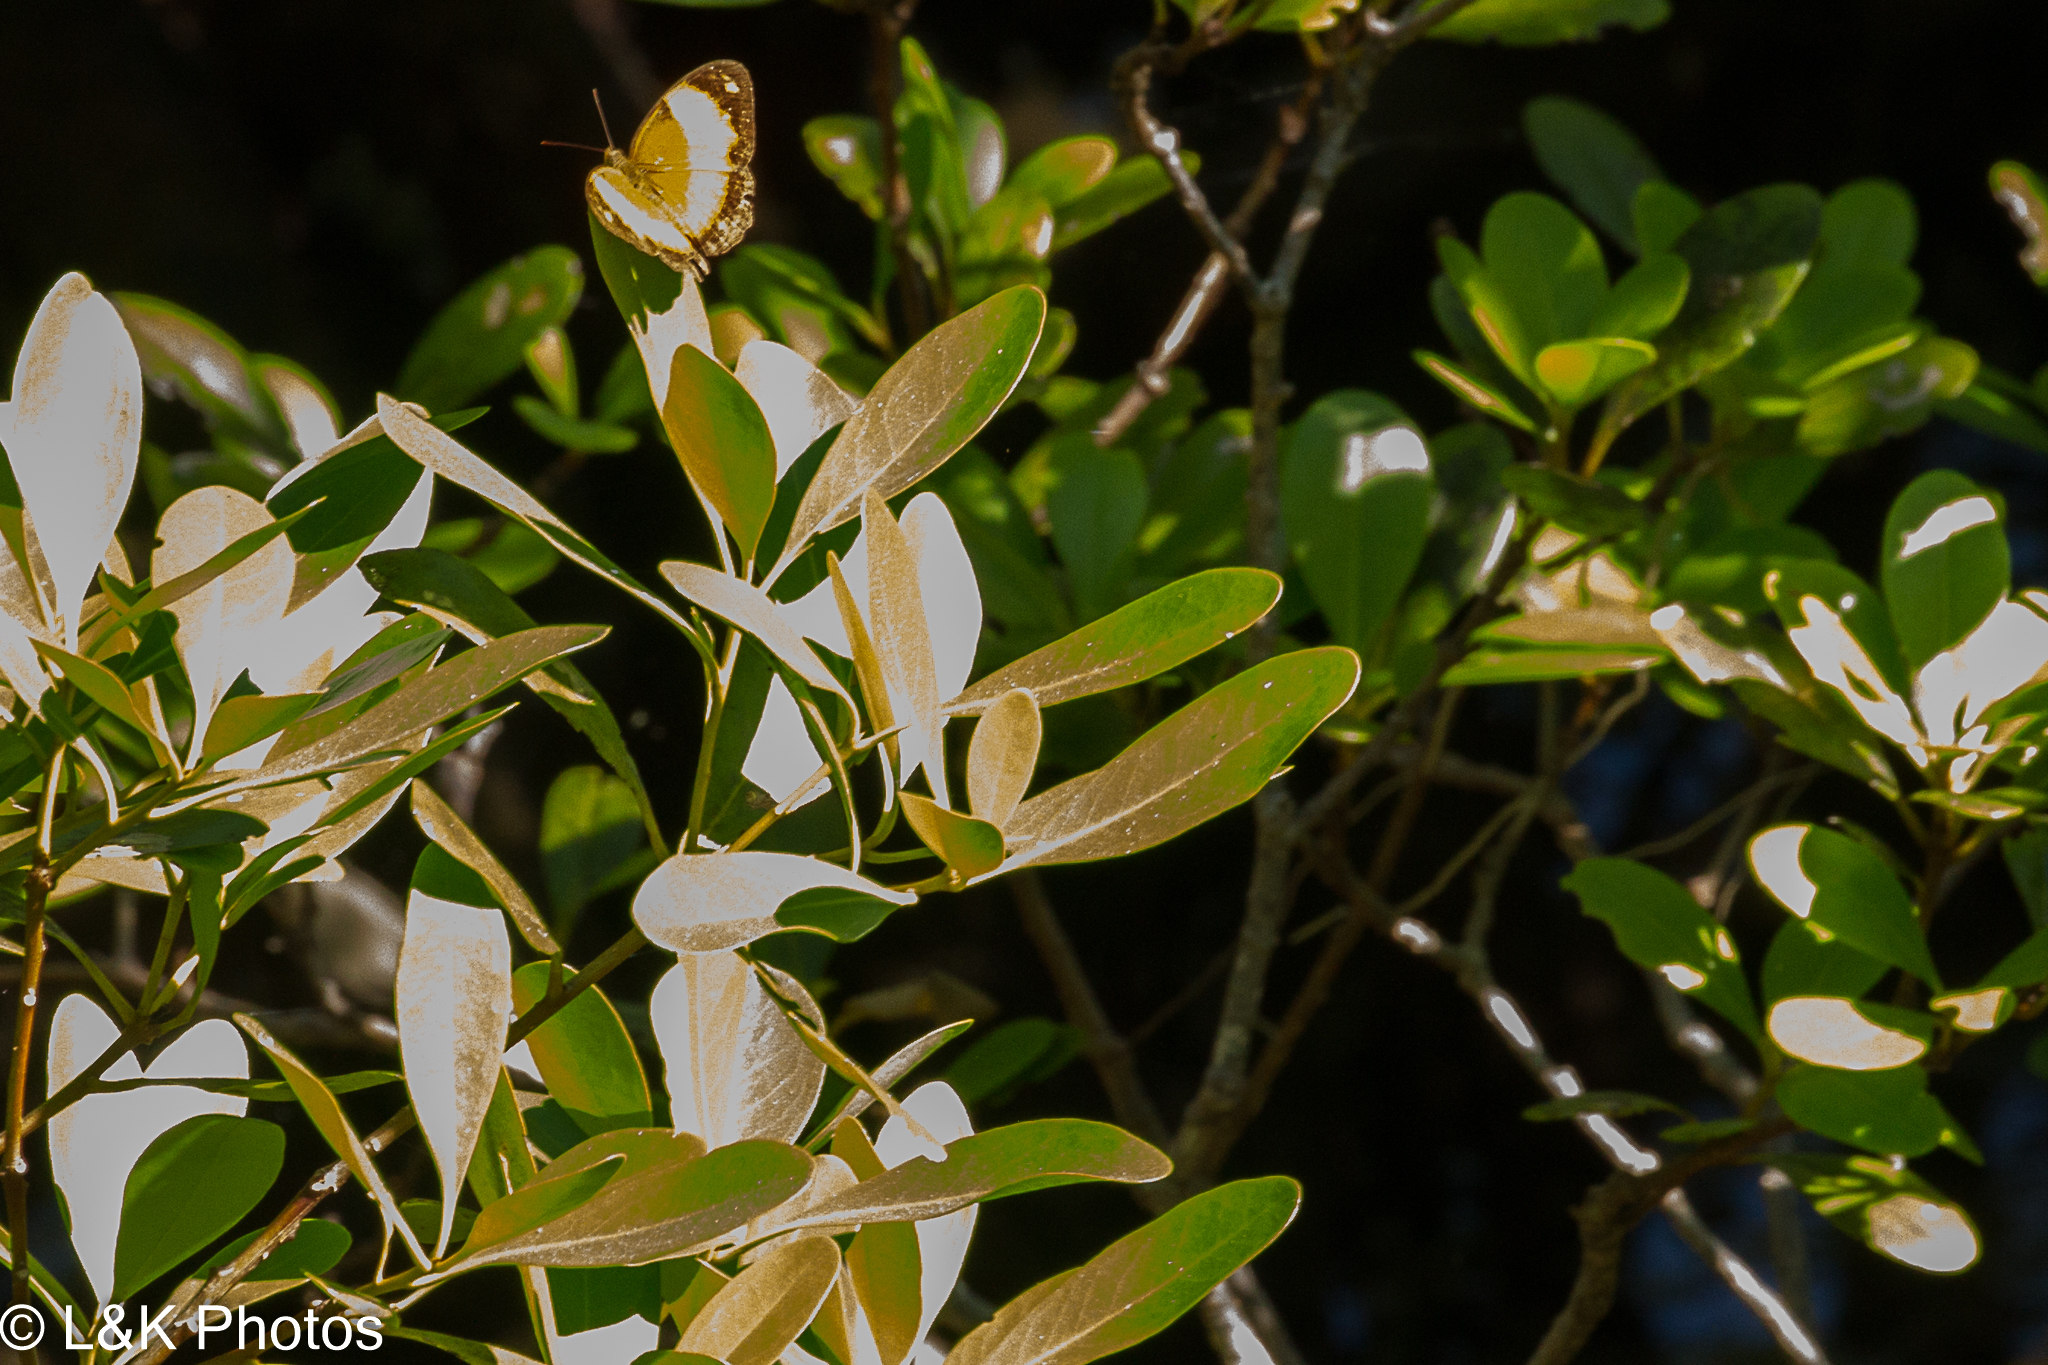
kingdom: Animalia
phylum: Arthropoda
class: Insecta
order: Lepidoptera
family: Nymphalidae
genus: Cupha
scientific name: Cupha prosope
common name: Bordered rustic
